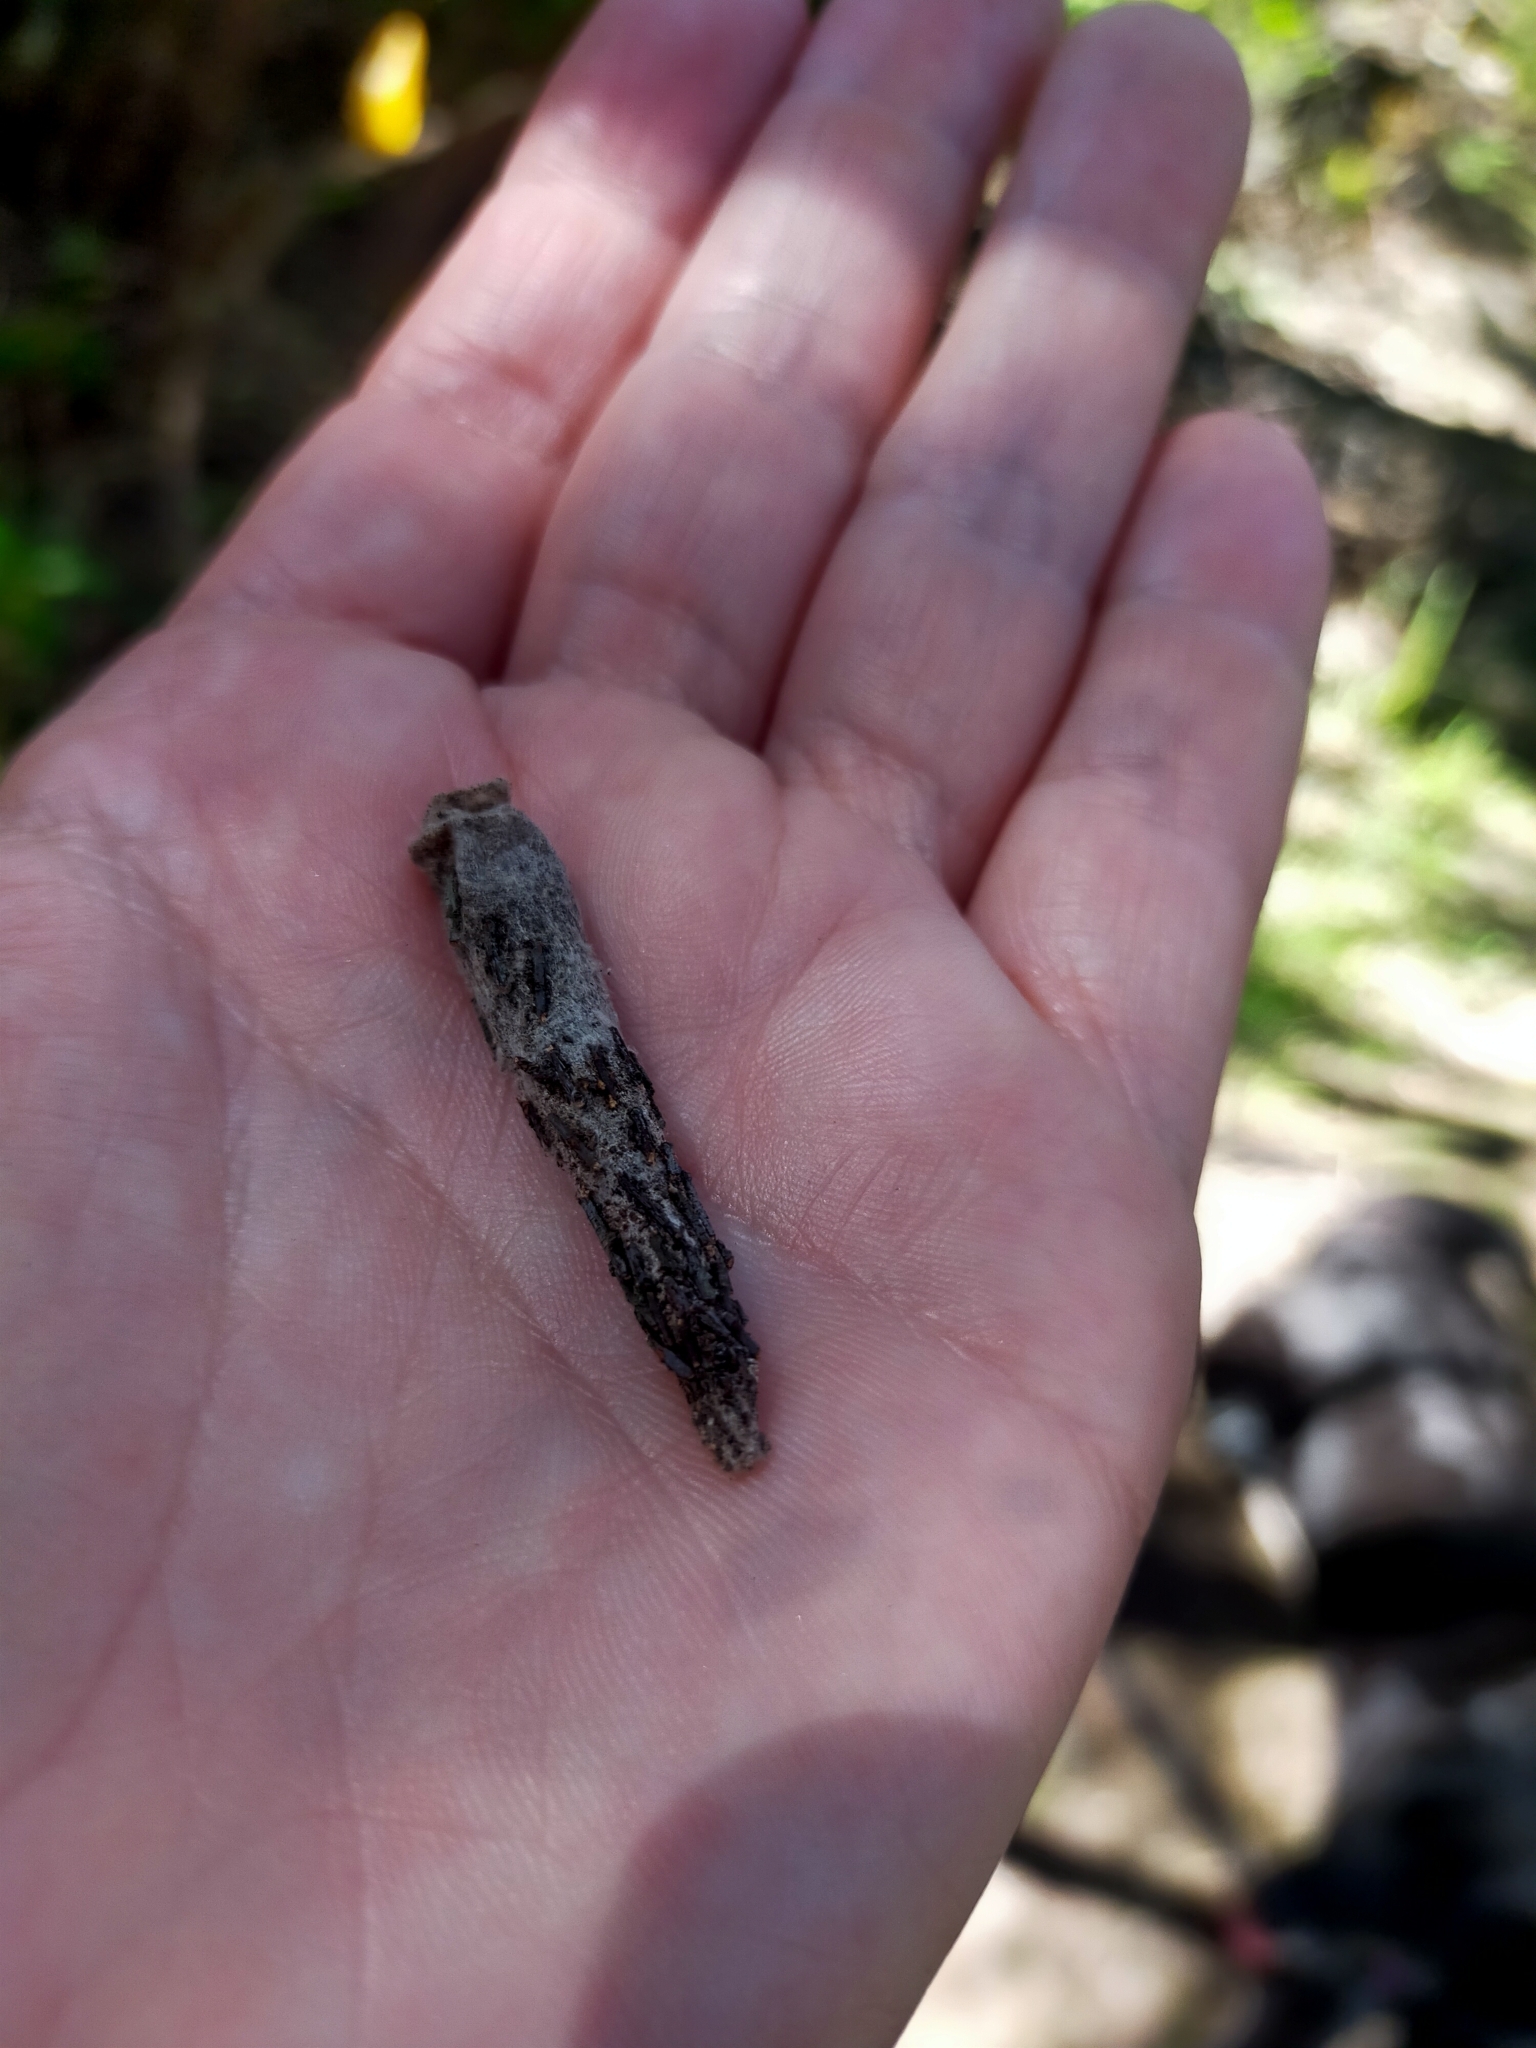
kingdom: Animalia
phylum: Arthropoda
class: Insecta
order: Lepidoptera
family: Psychidae
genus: Liothula
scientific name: Liothula omnivora
